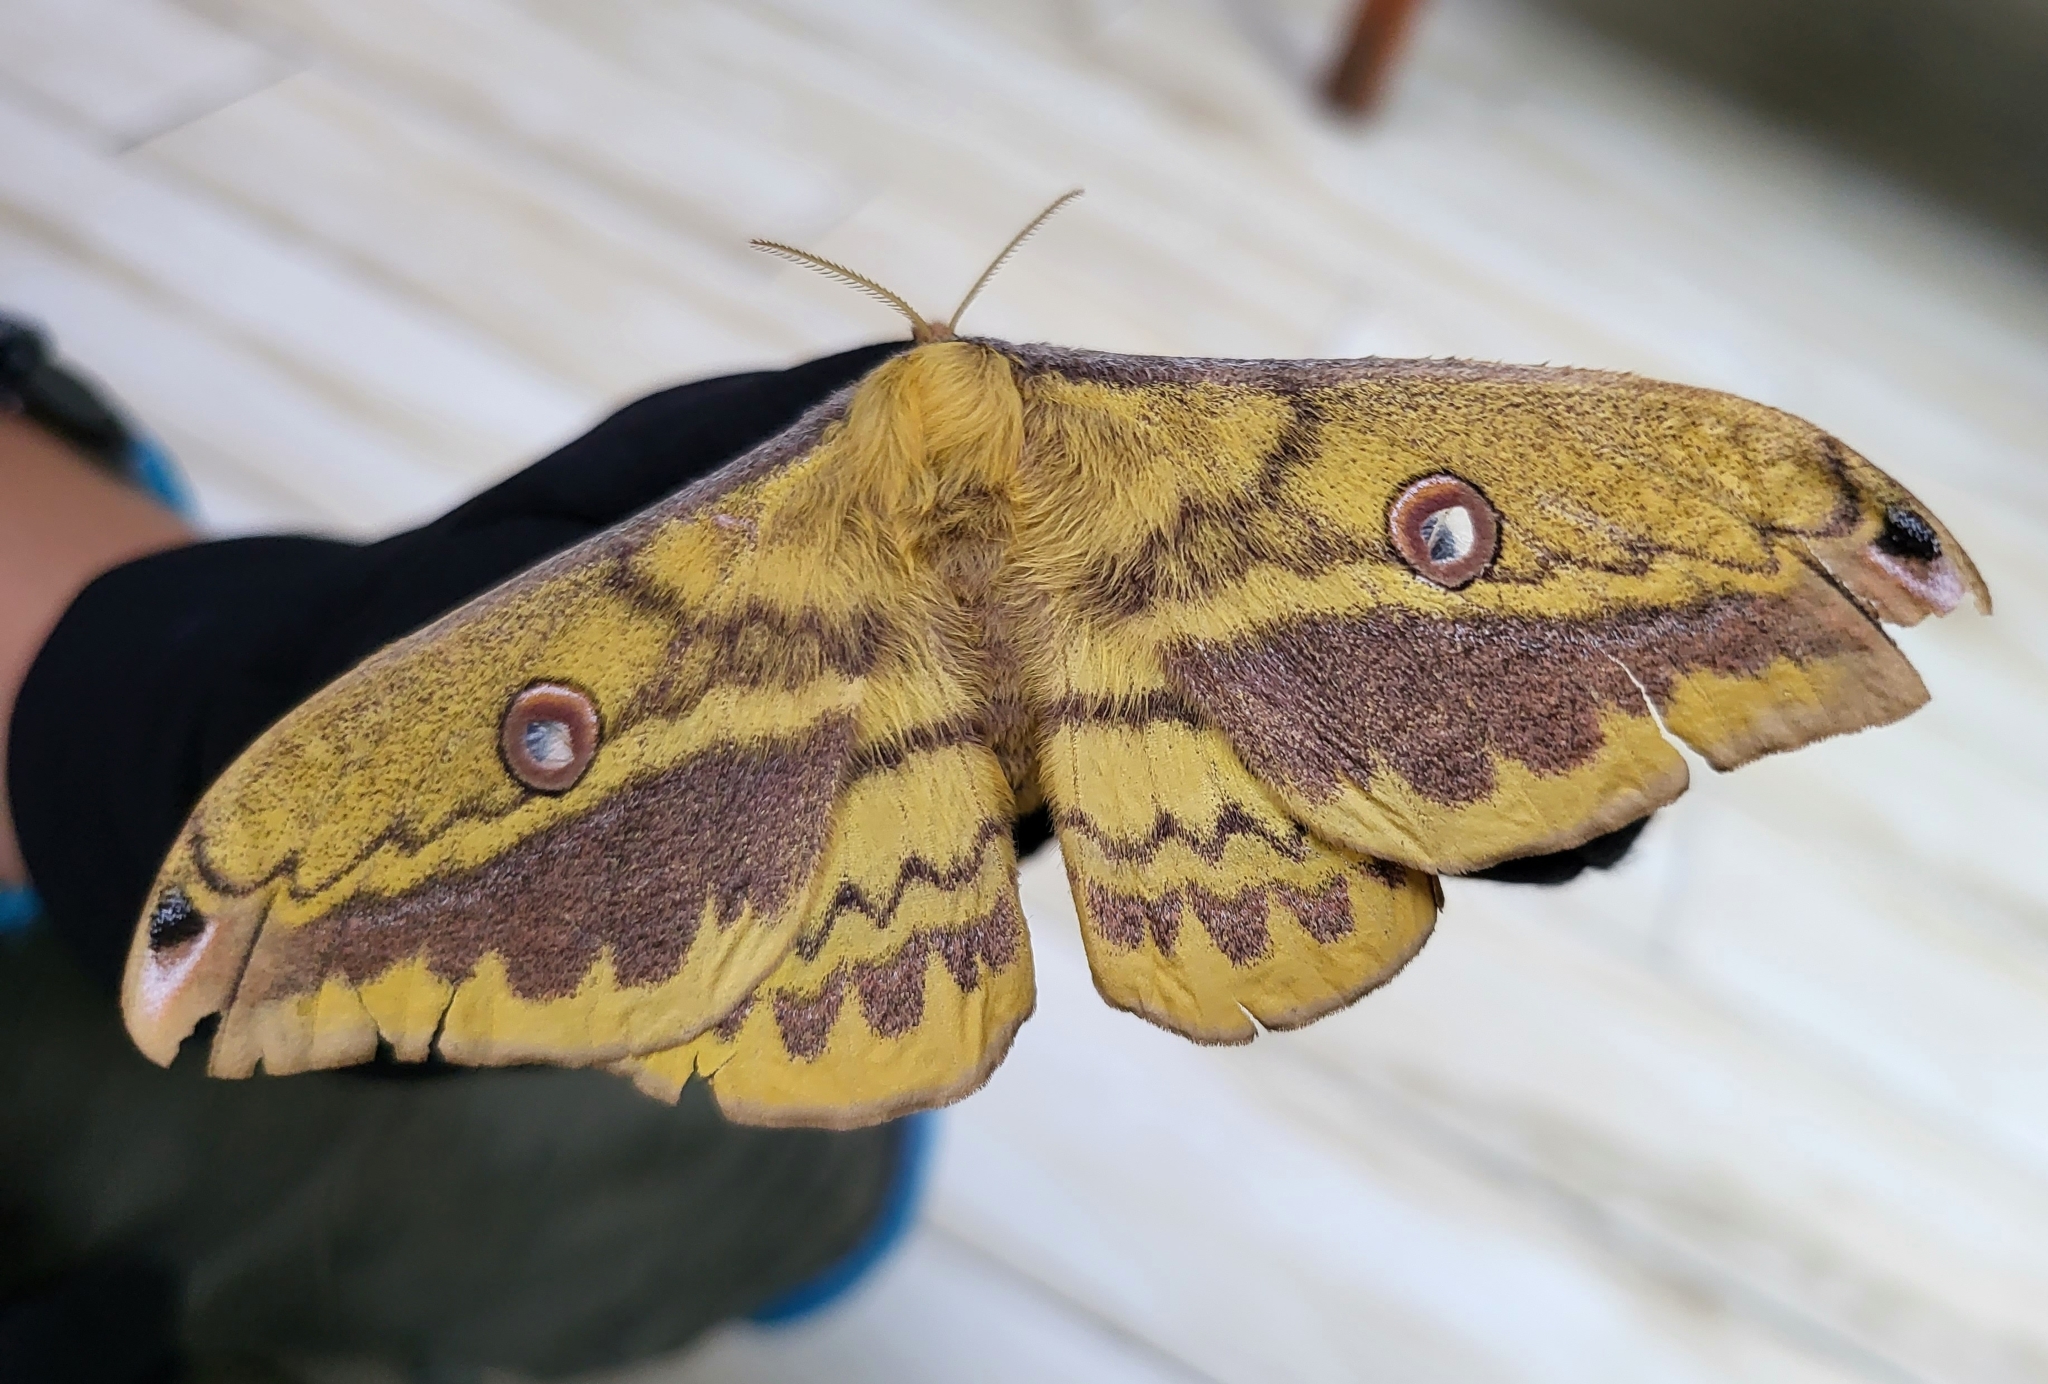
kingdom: Animalia
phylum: Arthropoda
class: Insecta
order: Lepidoptera
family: Saturniidae
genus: Copaxa
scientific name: Copaxa lavendera
